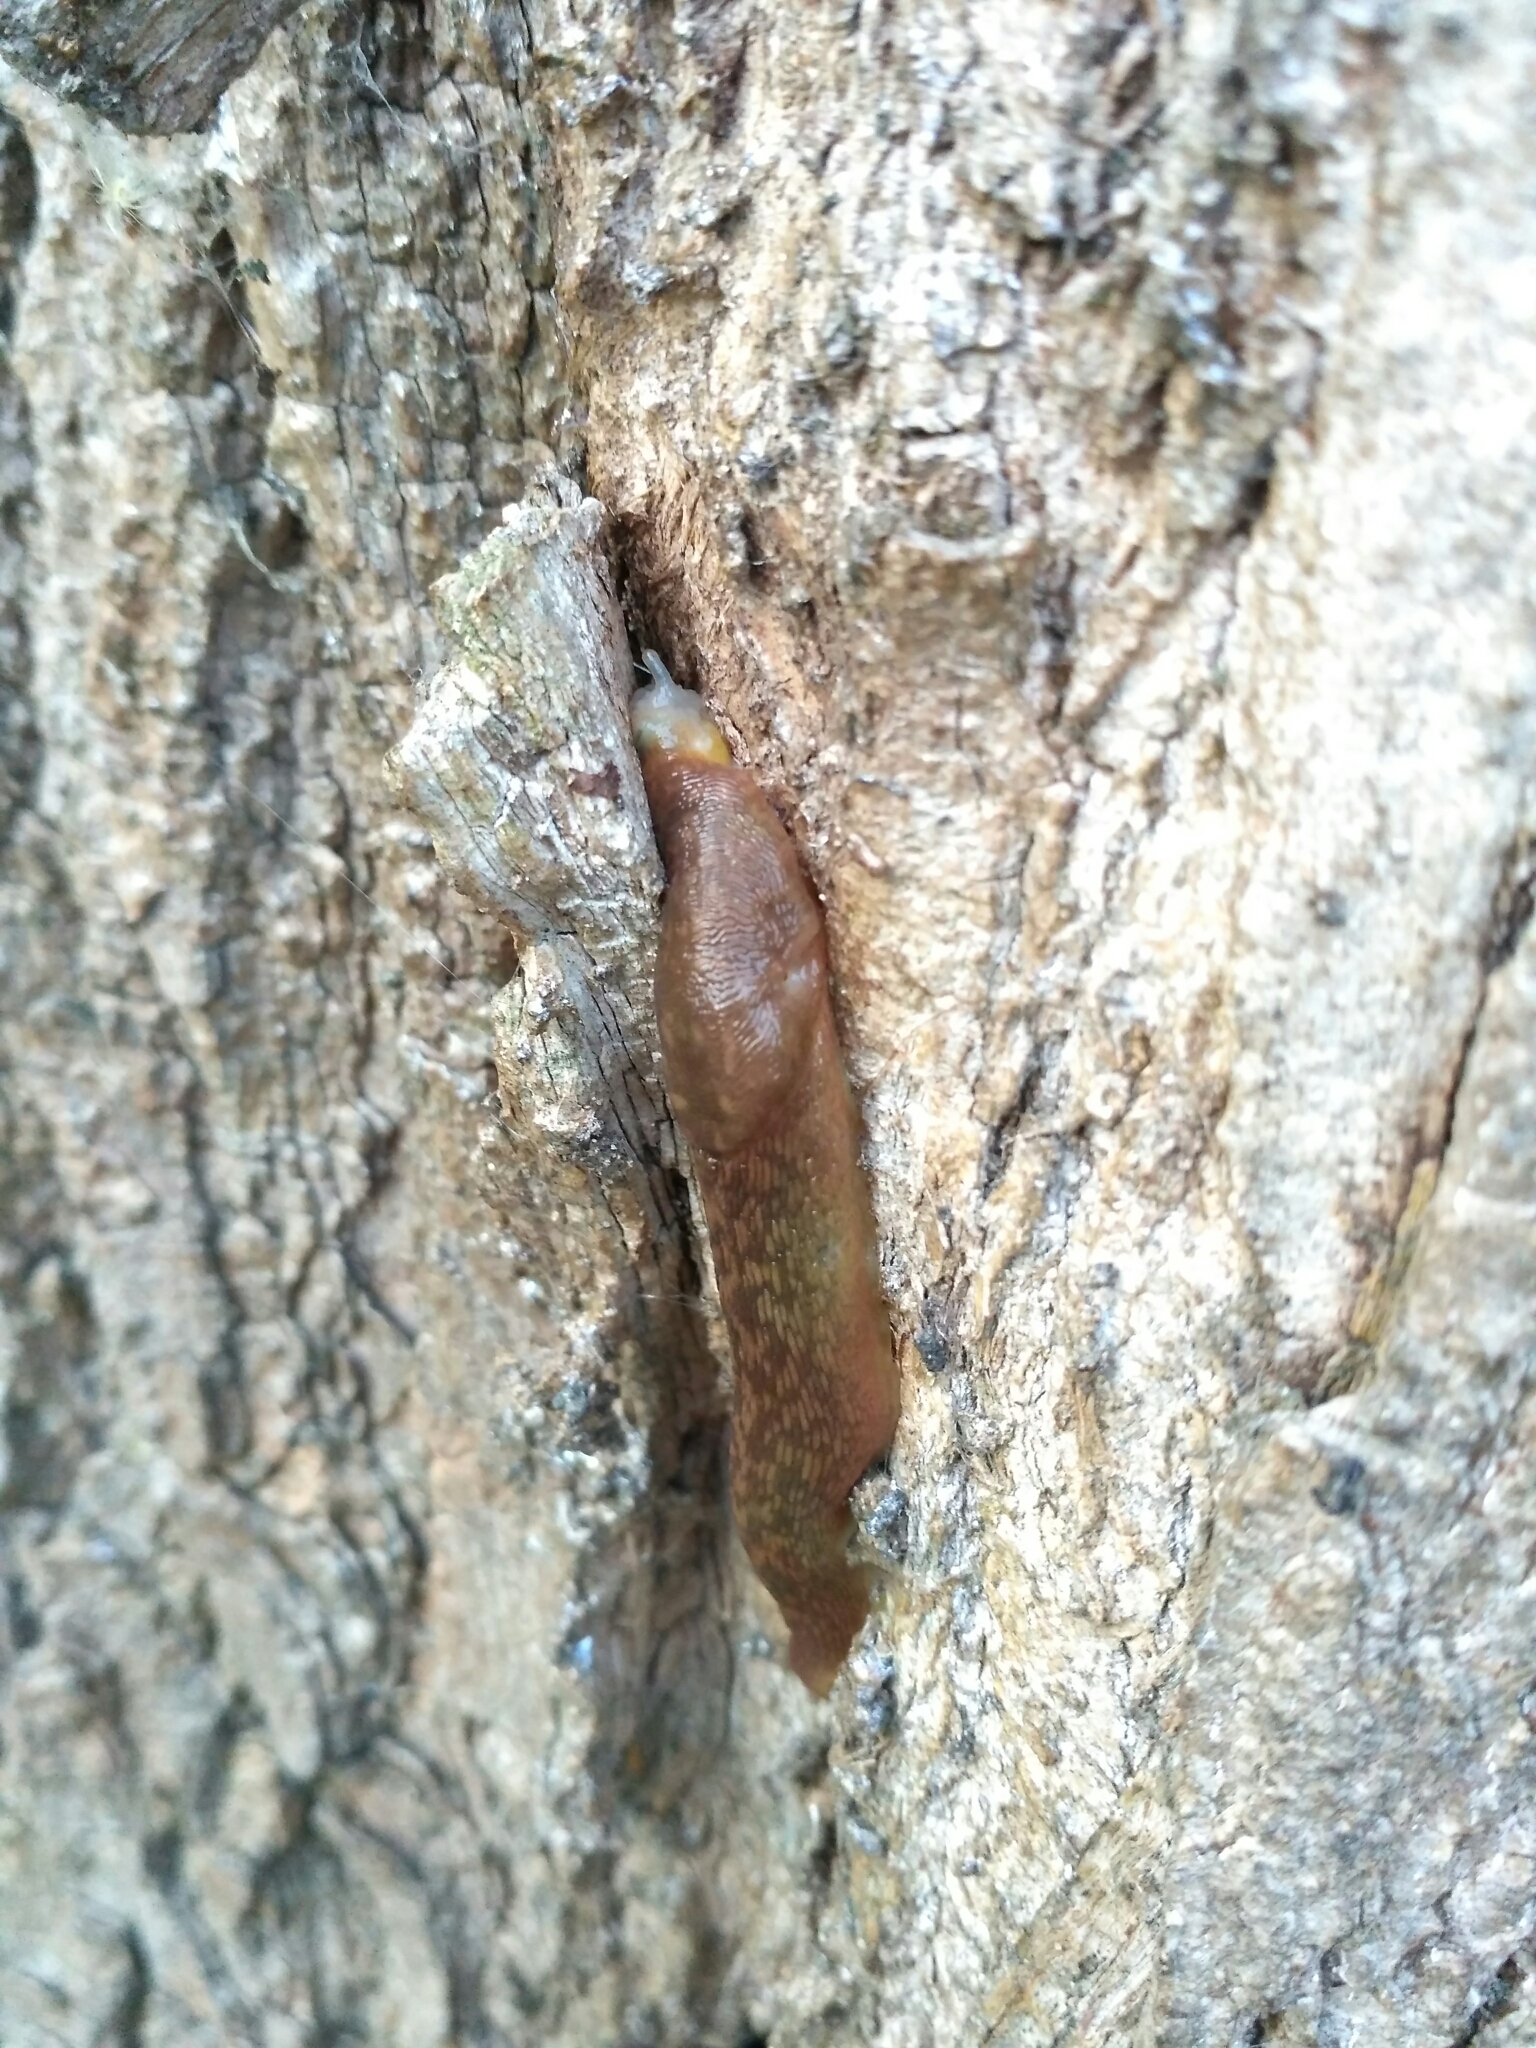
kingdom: Animalia
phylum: Mollusca
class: Gastropoda
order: Stylommatophora
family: Limacidae
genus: Limacus
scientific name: Limacus flavus
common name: Yellow gardenslug
